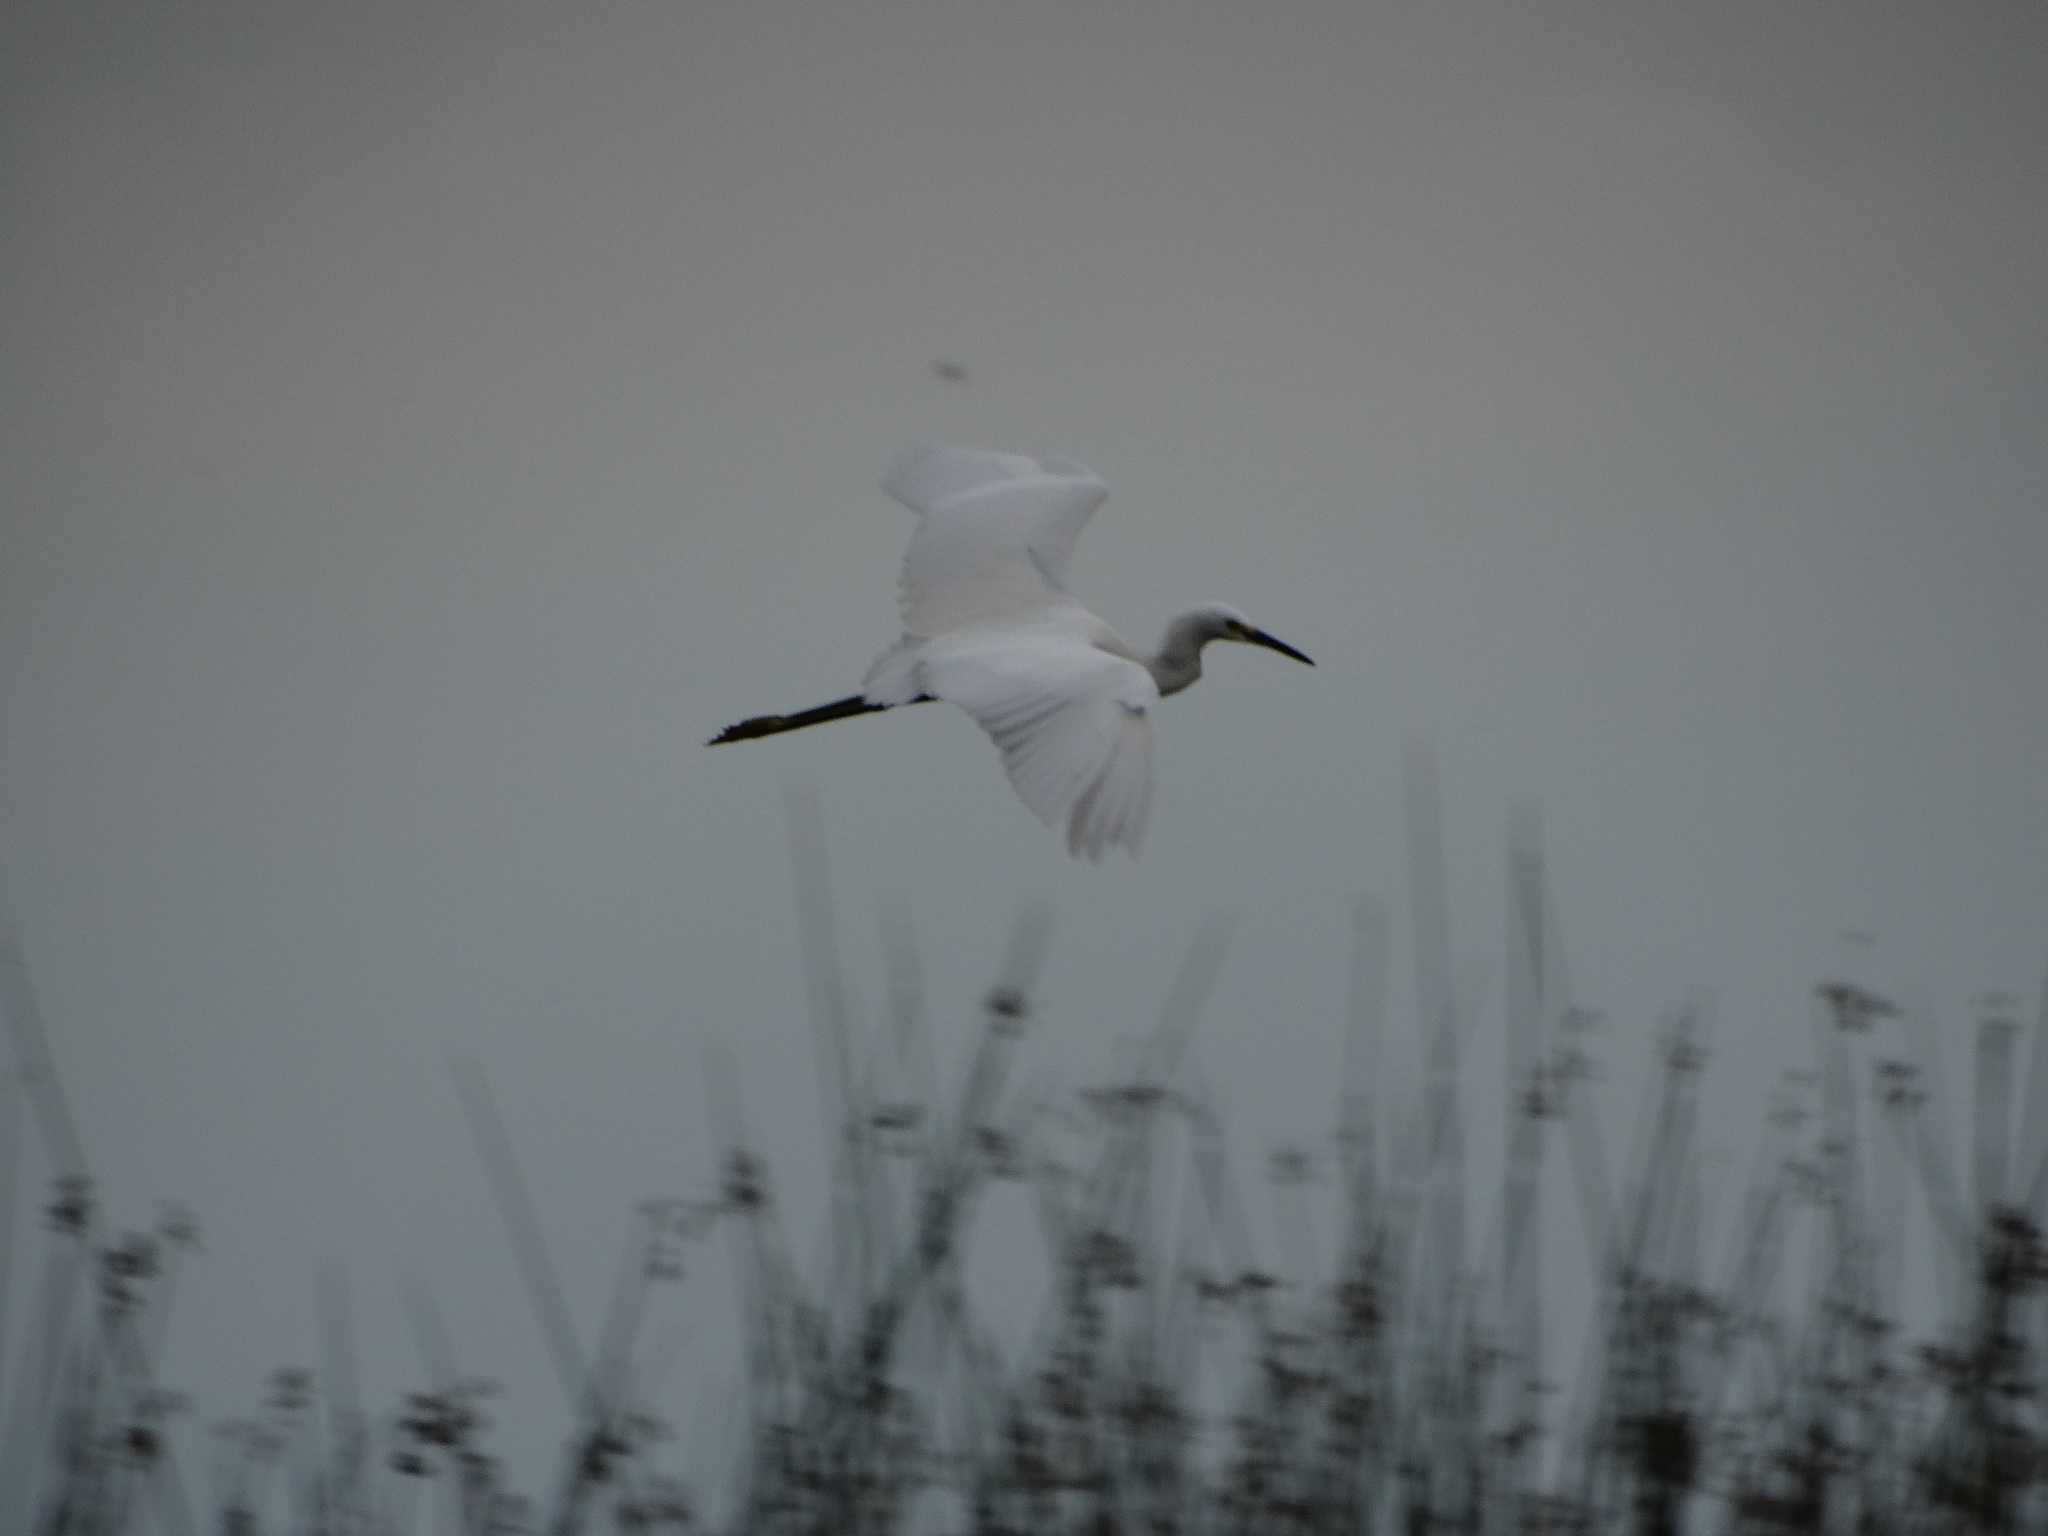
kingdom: Animalia
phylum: Chordata
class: Aves
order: Pelecaniformes
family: Ardeidae
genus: Egretta
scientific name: Egretta thula
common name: Snowy egret
